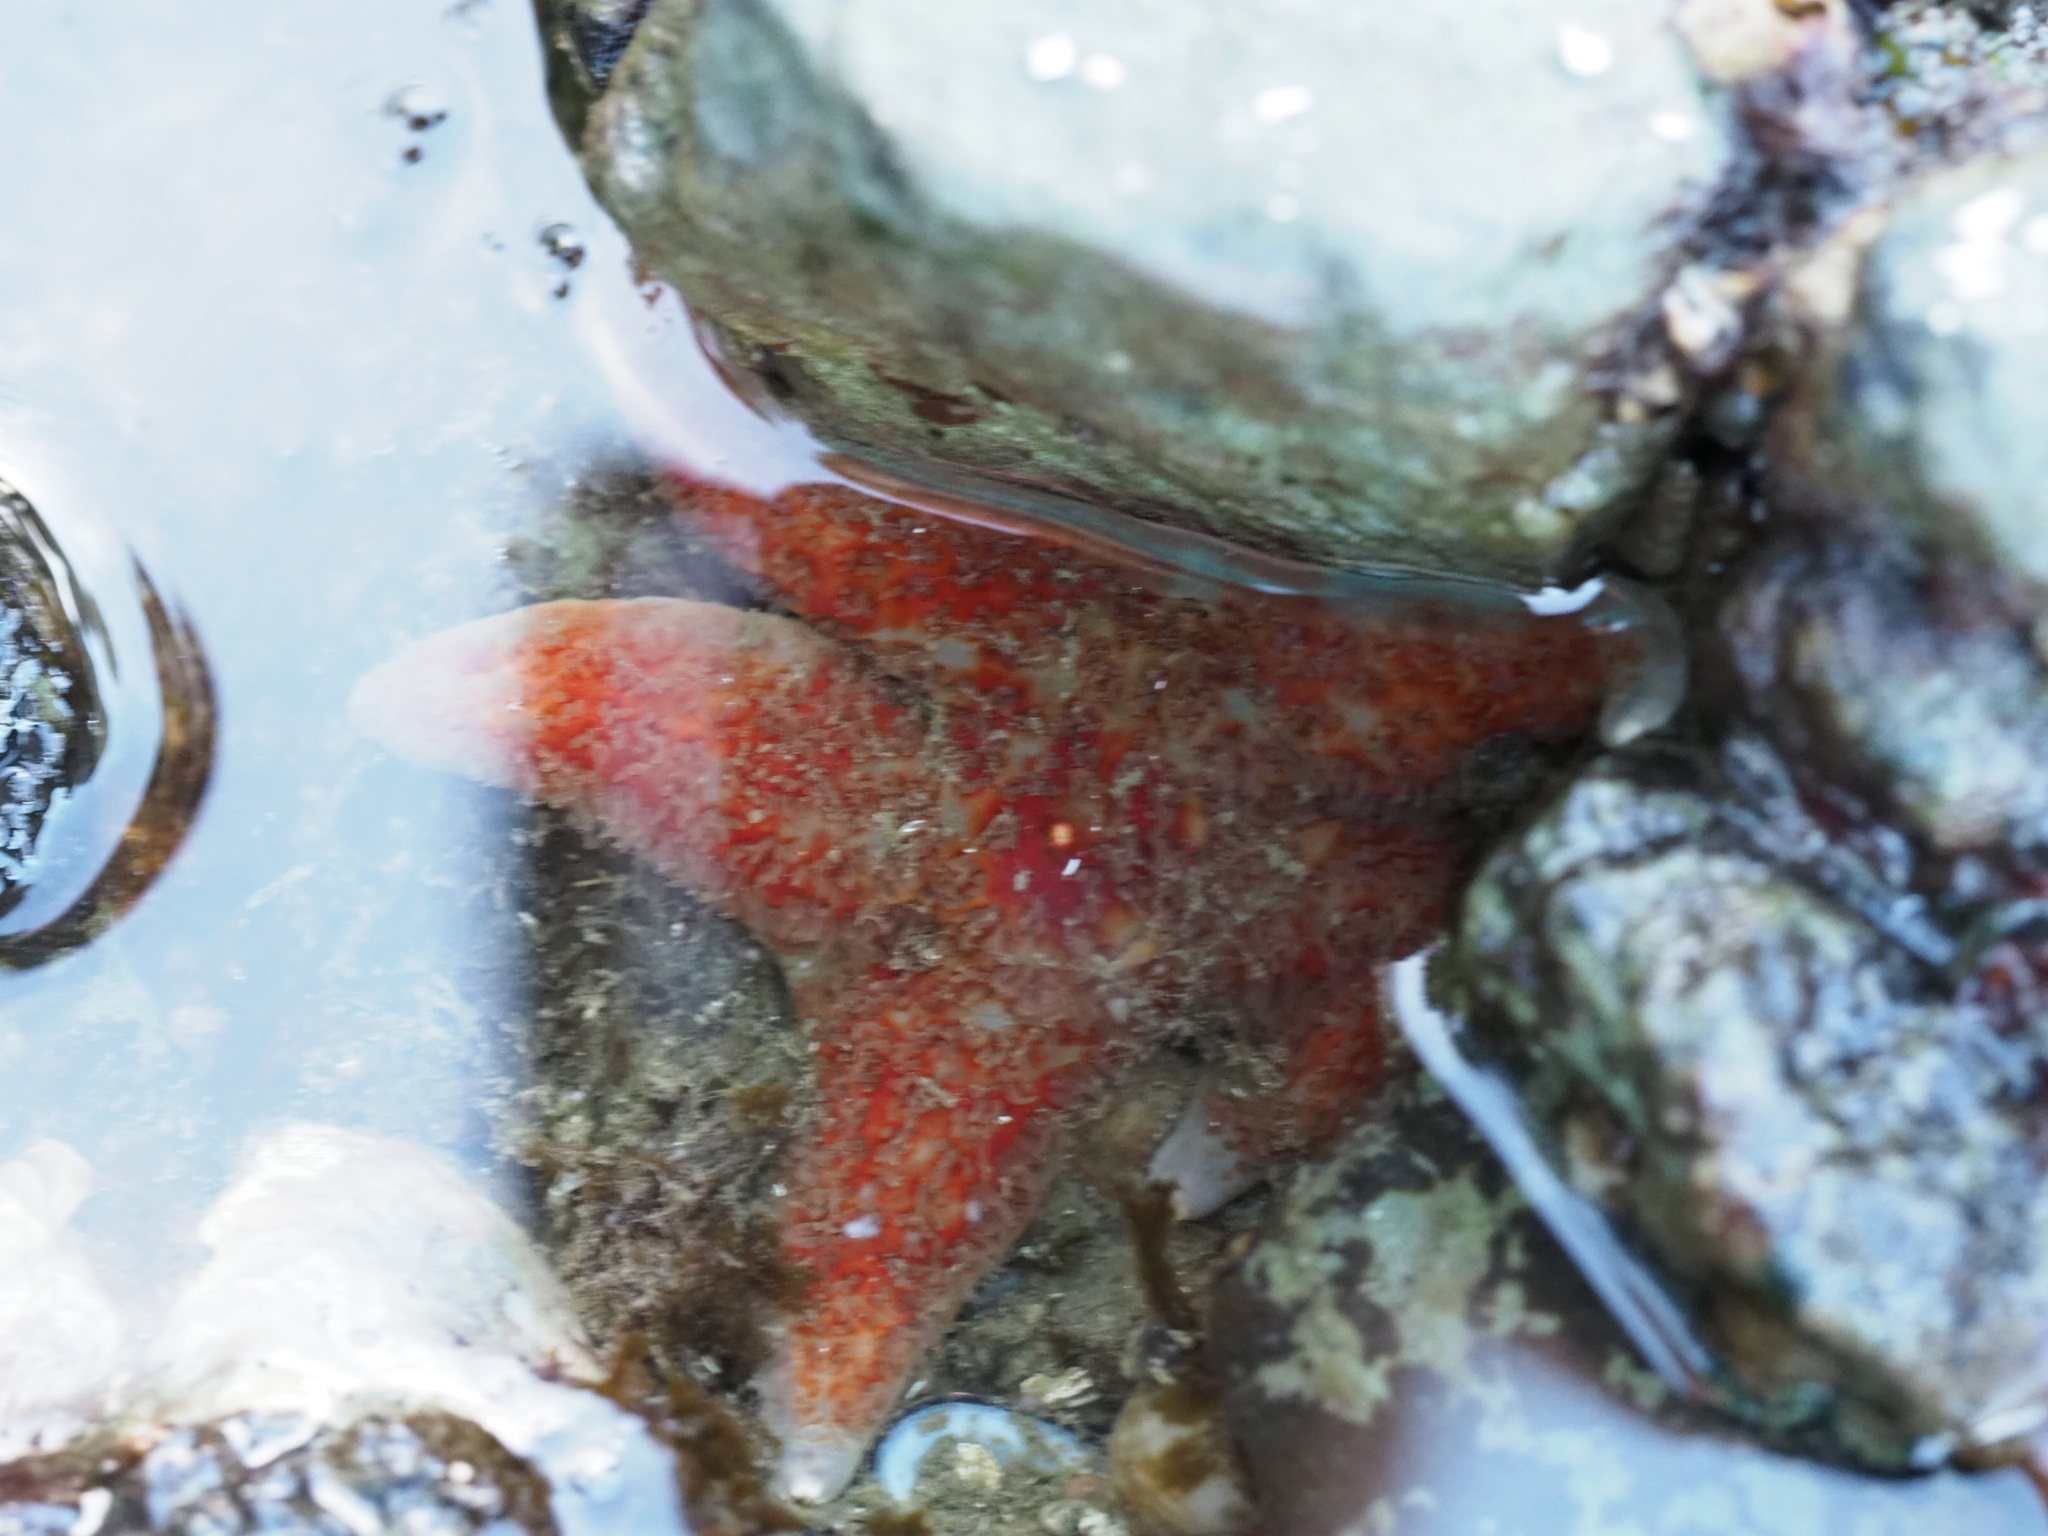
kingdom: Animalia
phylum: Echinodermata
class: Asteroidea
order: Valvatida
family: Asteropseidae
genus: Dermasterias
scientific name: Dermasterias imbricata
